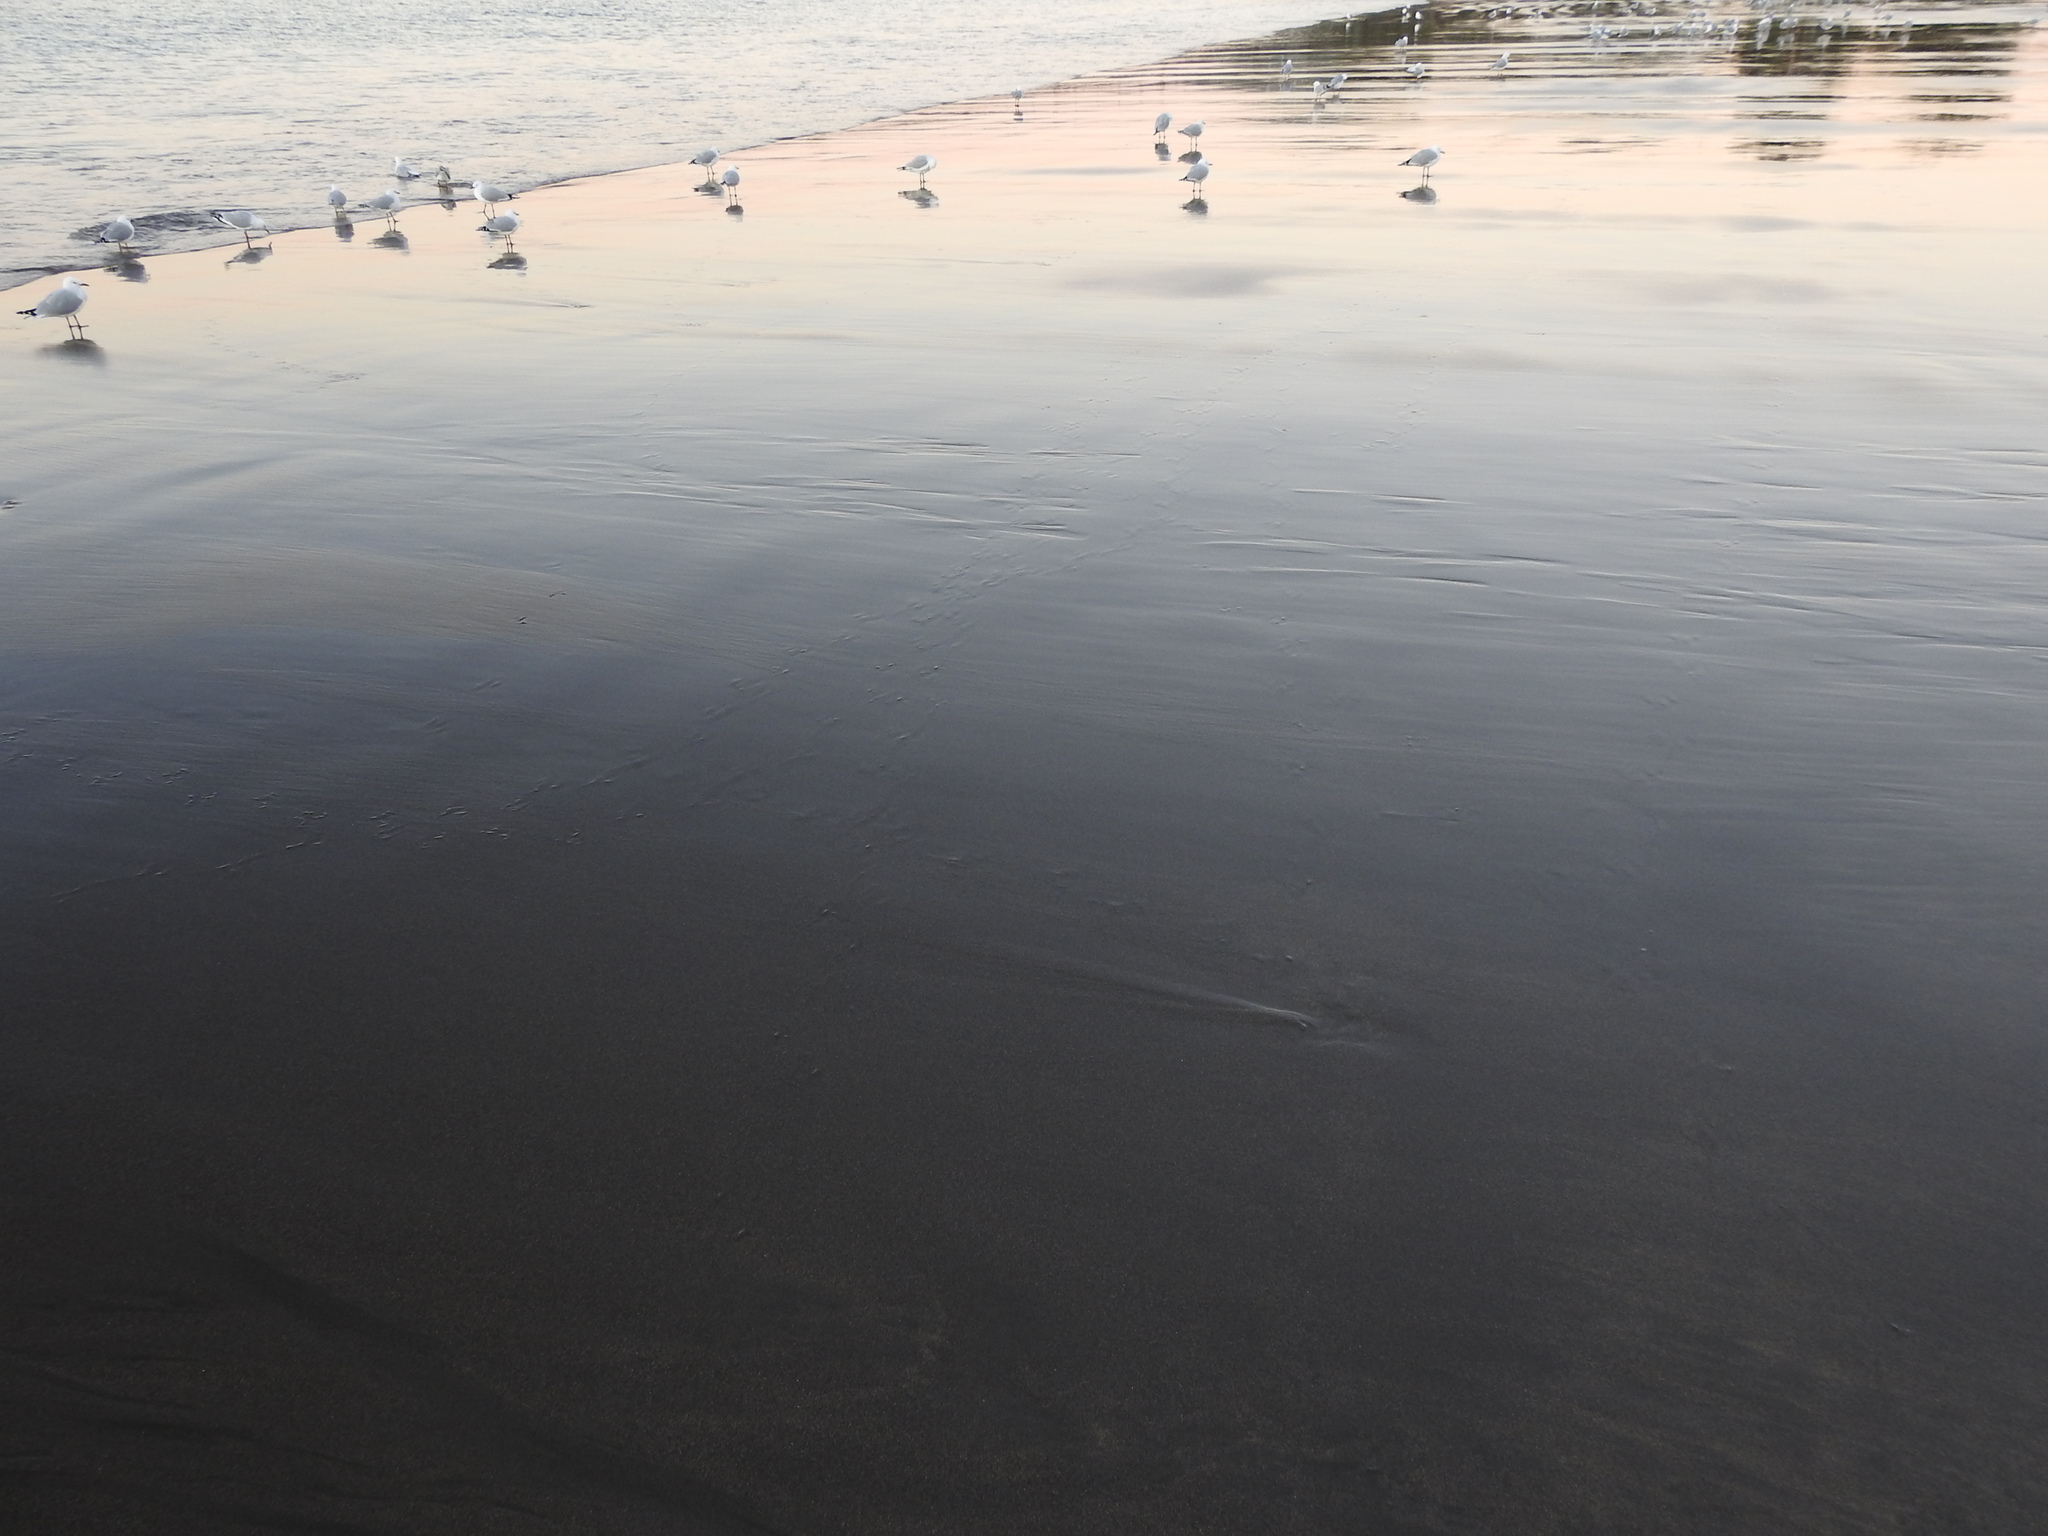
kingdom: Animalia
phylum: Chordata
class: Aves
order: Charadriiformes
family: Laridae
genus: Chroicocephalus
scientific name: Chroicocephalus novaehollandiae
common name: Silver gull
